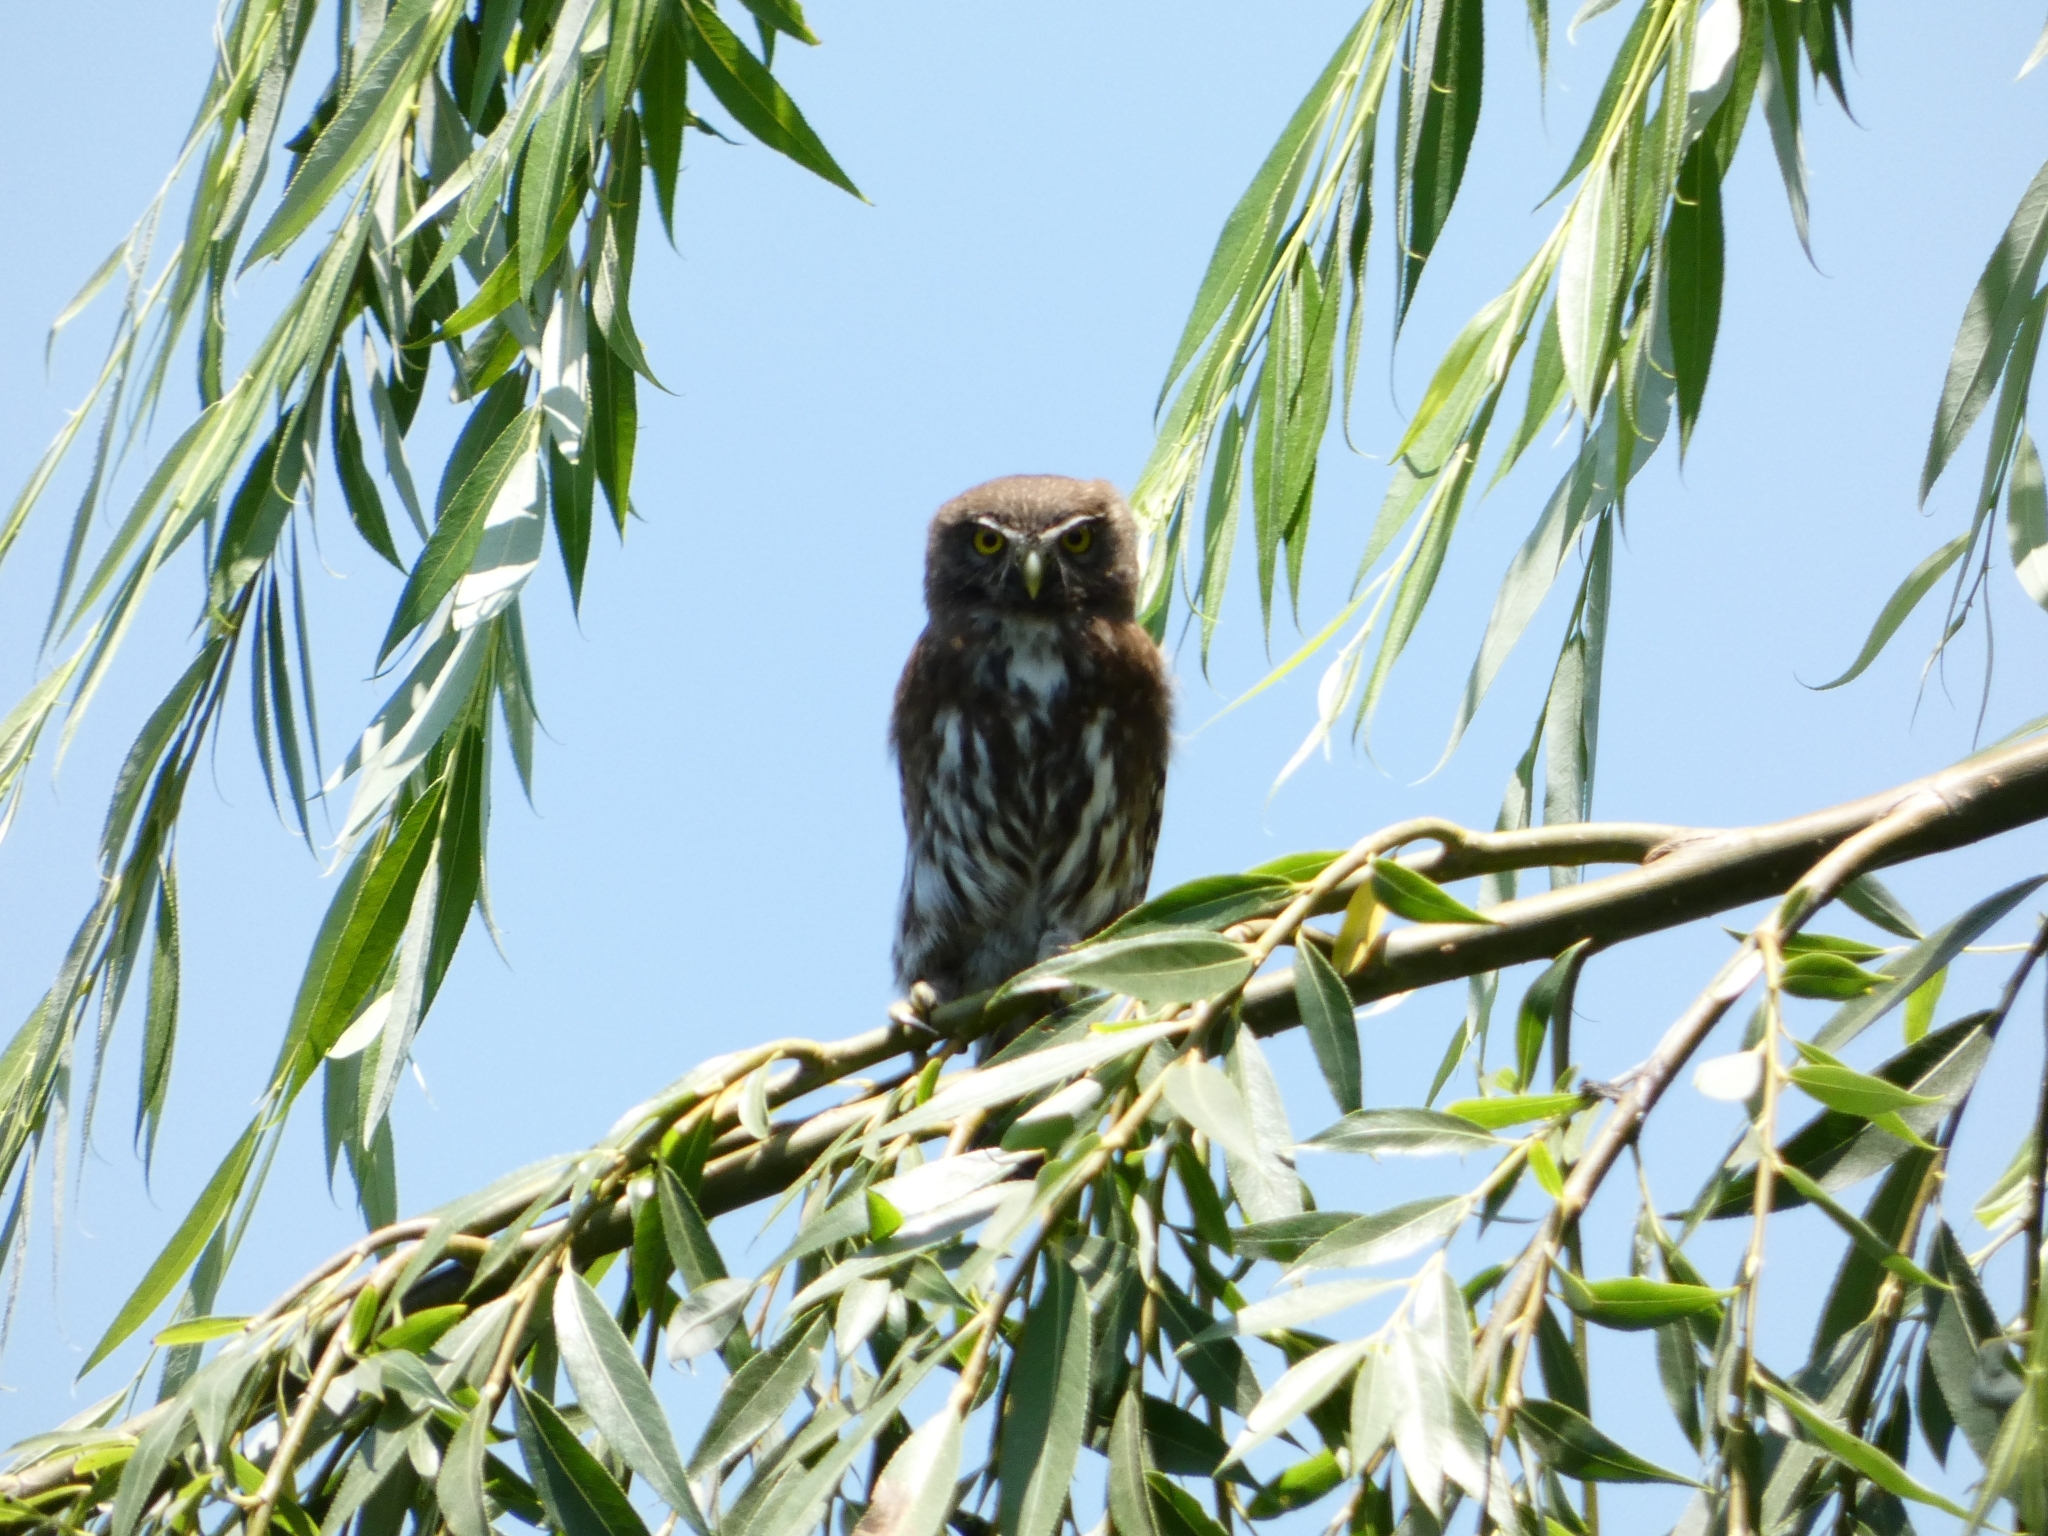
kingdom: Animalia
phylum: Chordata
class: Aves
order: Strigiformes
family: Strigidae
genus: Glaucidium
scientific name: Glaucidium nana
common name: Austral pygmy-owl
